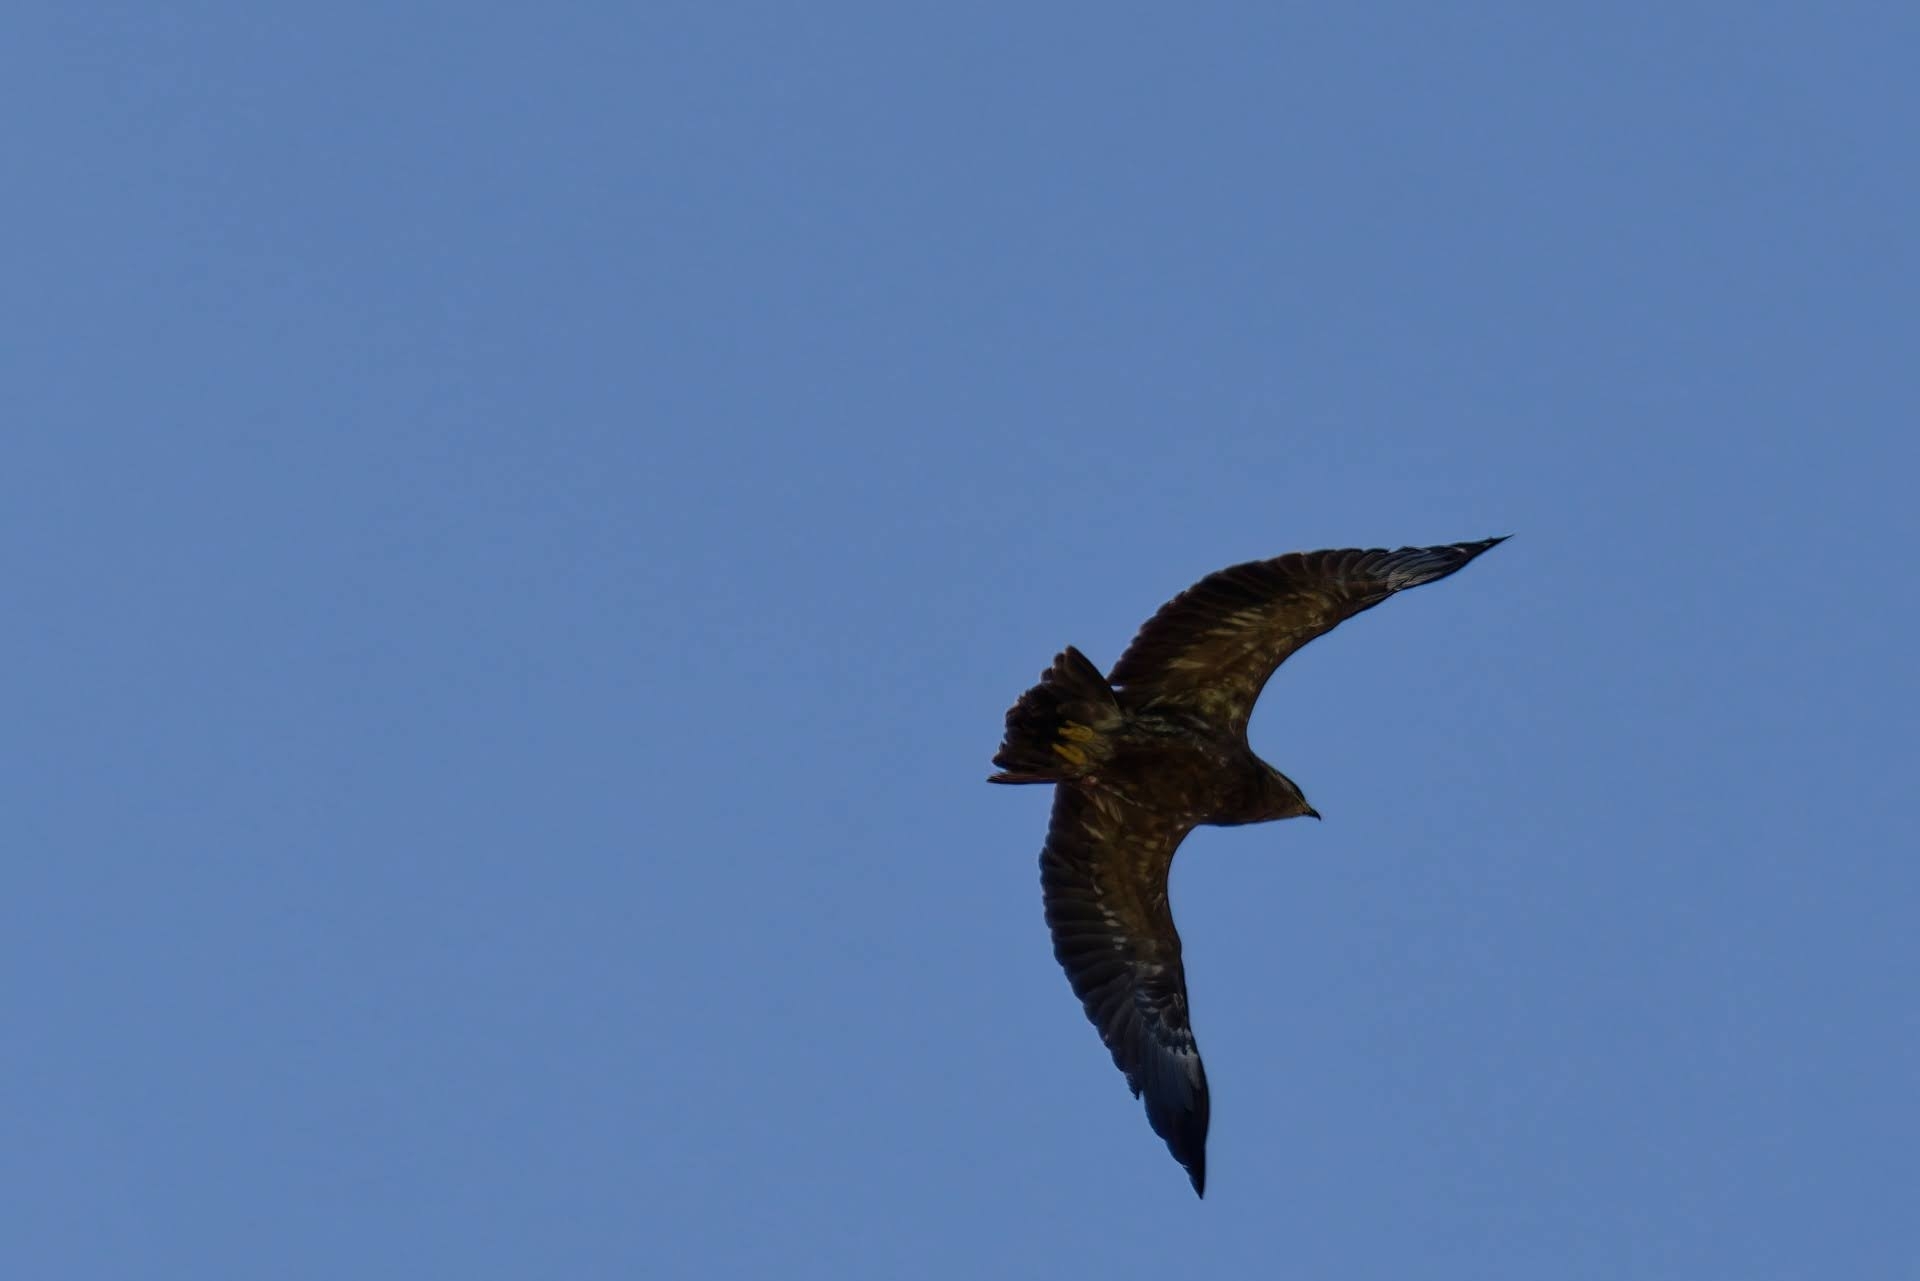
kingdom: Animalia
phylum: Chordata
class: Aves
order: Accipitriformes
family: Accipitridae
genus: Aquila
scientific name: Aquila pomarina
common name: Lesser spotted eagle
